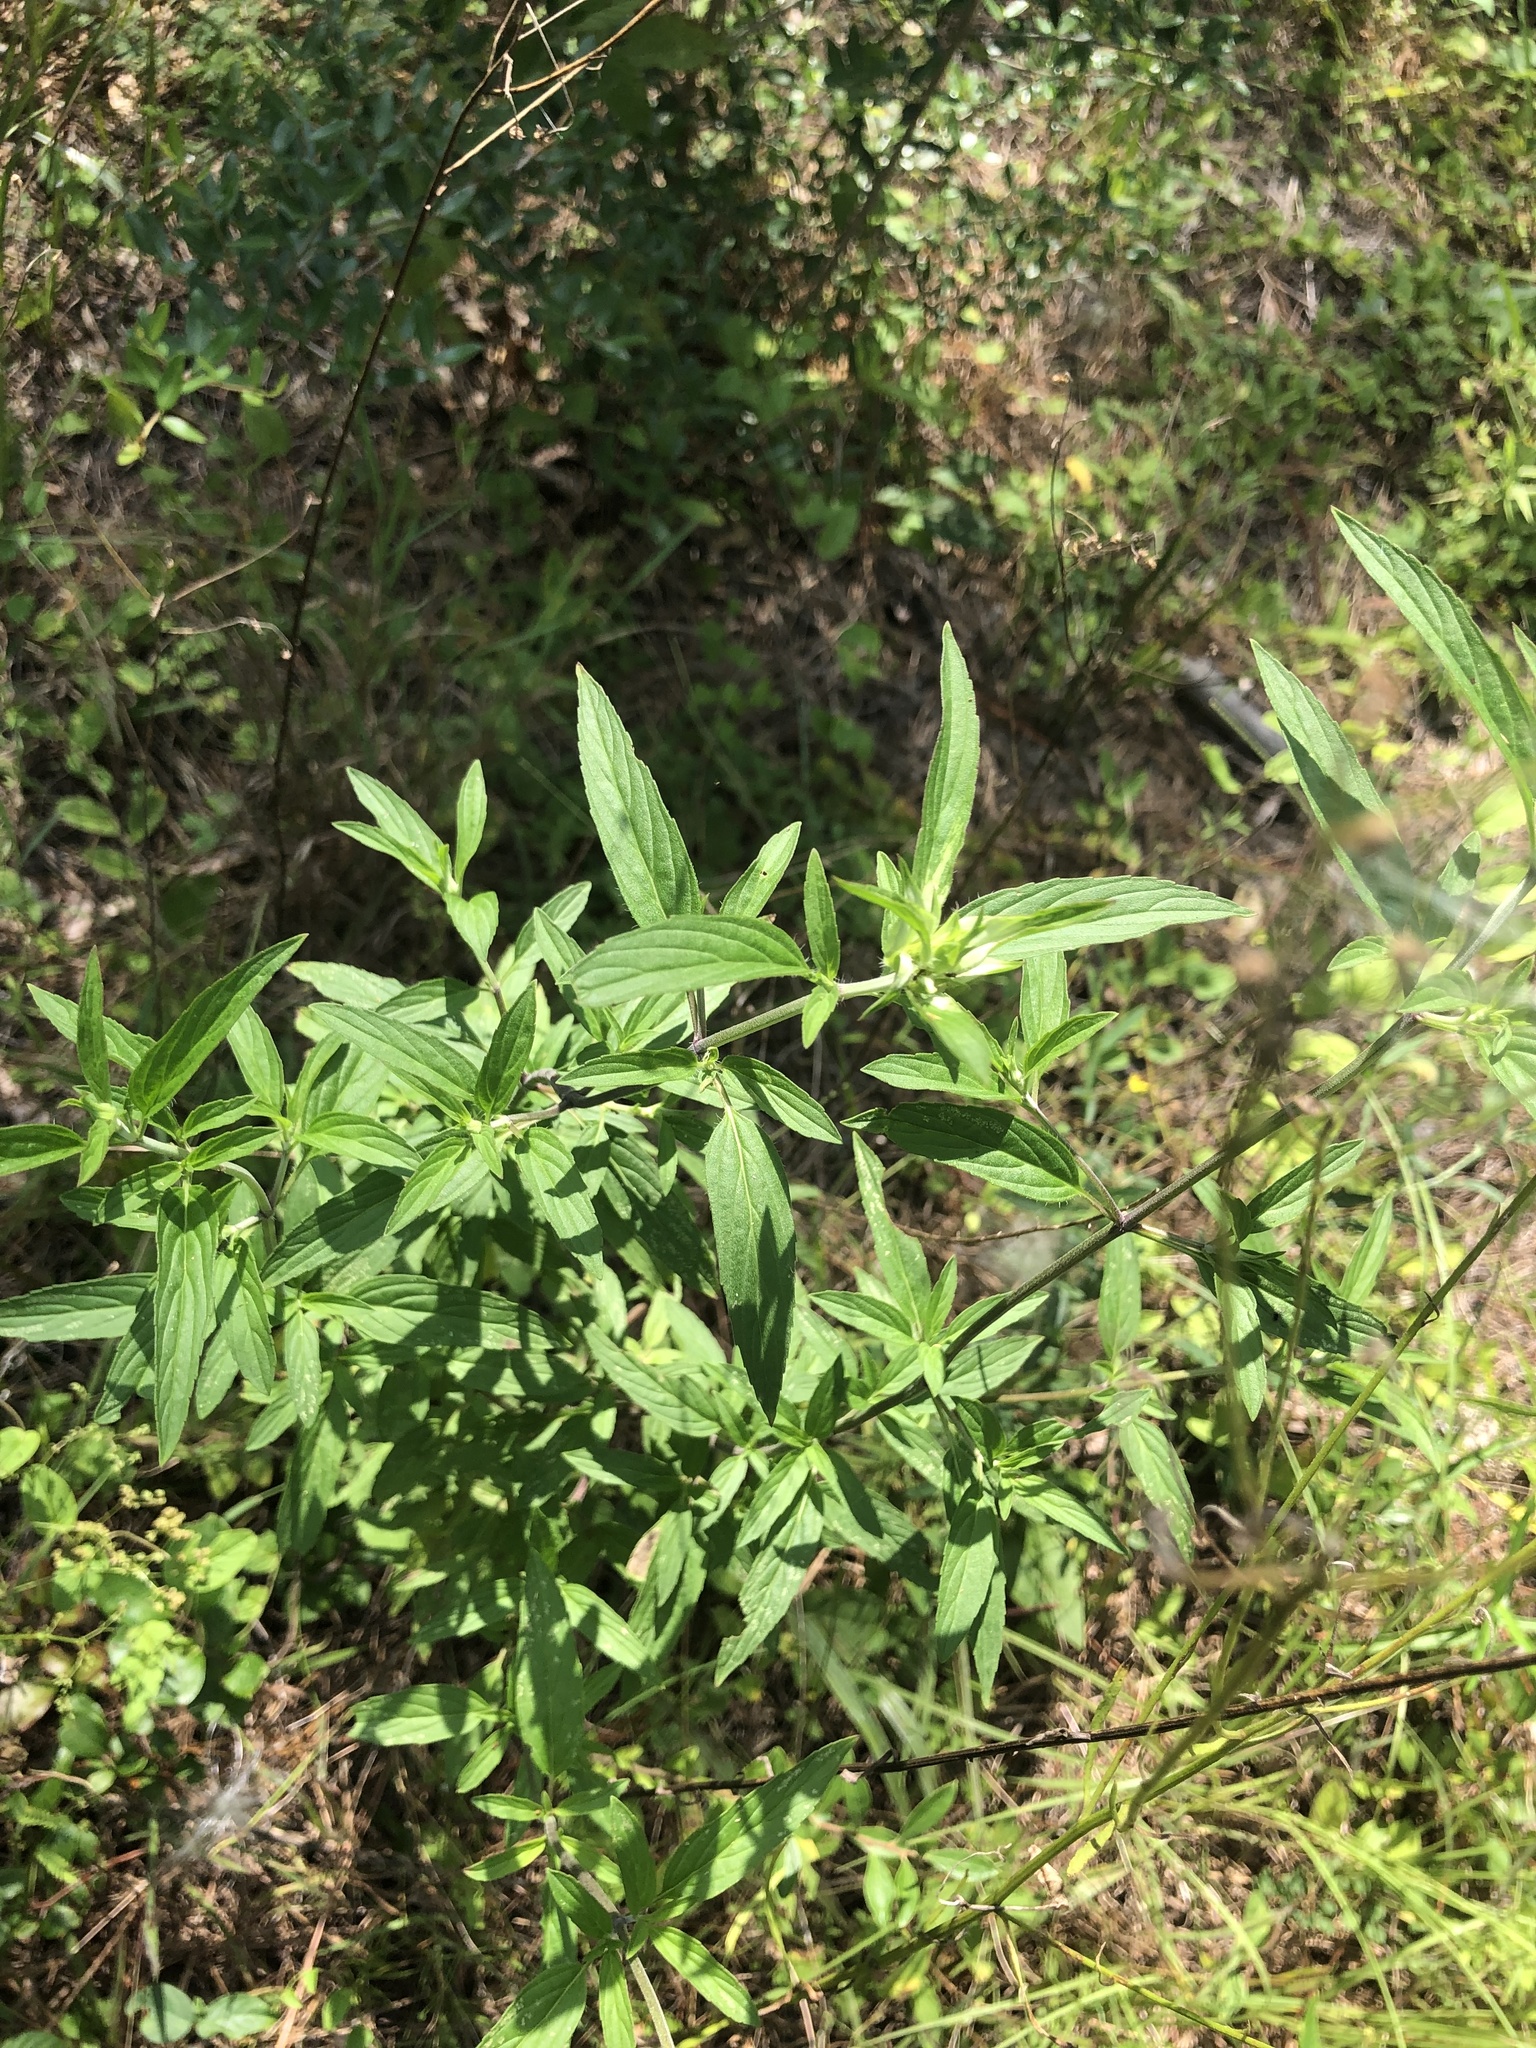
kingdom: Plantae
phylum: Tracheophyta
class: Magnoliopsida
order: Lamiales
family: Lamiaceae
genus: Monarda
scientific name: Monarda punctata
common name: Dotted monarda
